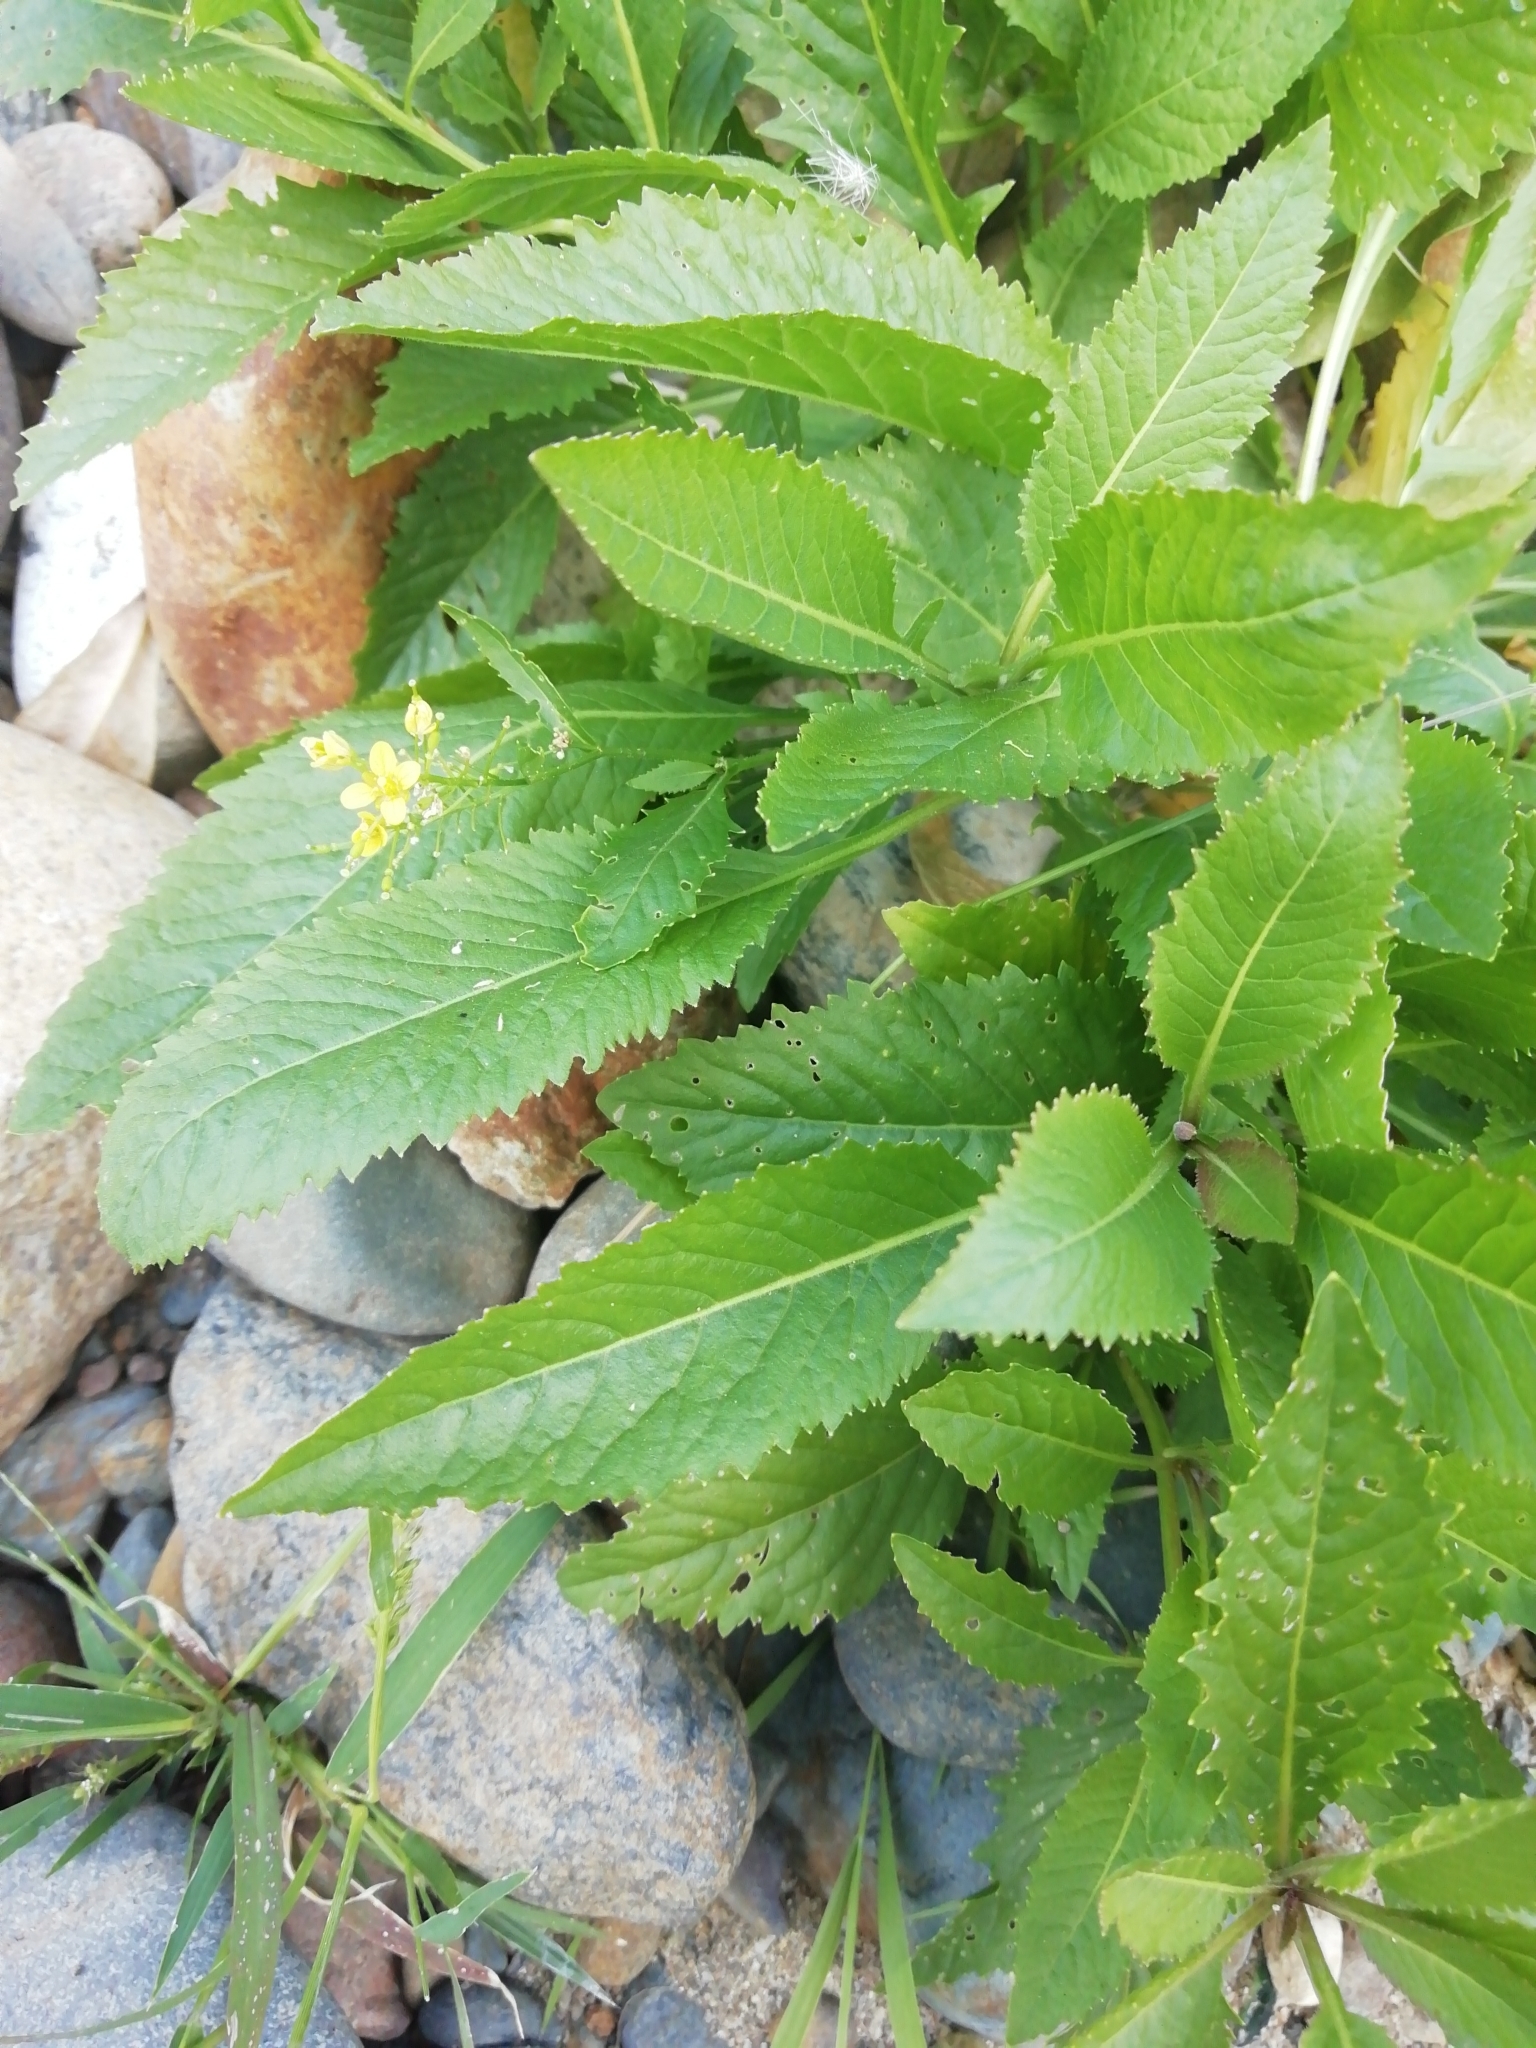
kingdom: Plantae
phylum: Tracheophyta
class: Magnoliopsida
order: Brassicales
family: Brassicaceae
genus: Rorippa
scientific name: Rorippa anceps
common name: Rorippa
